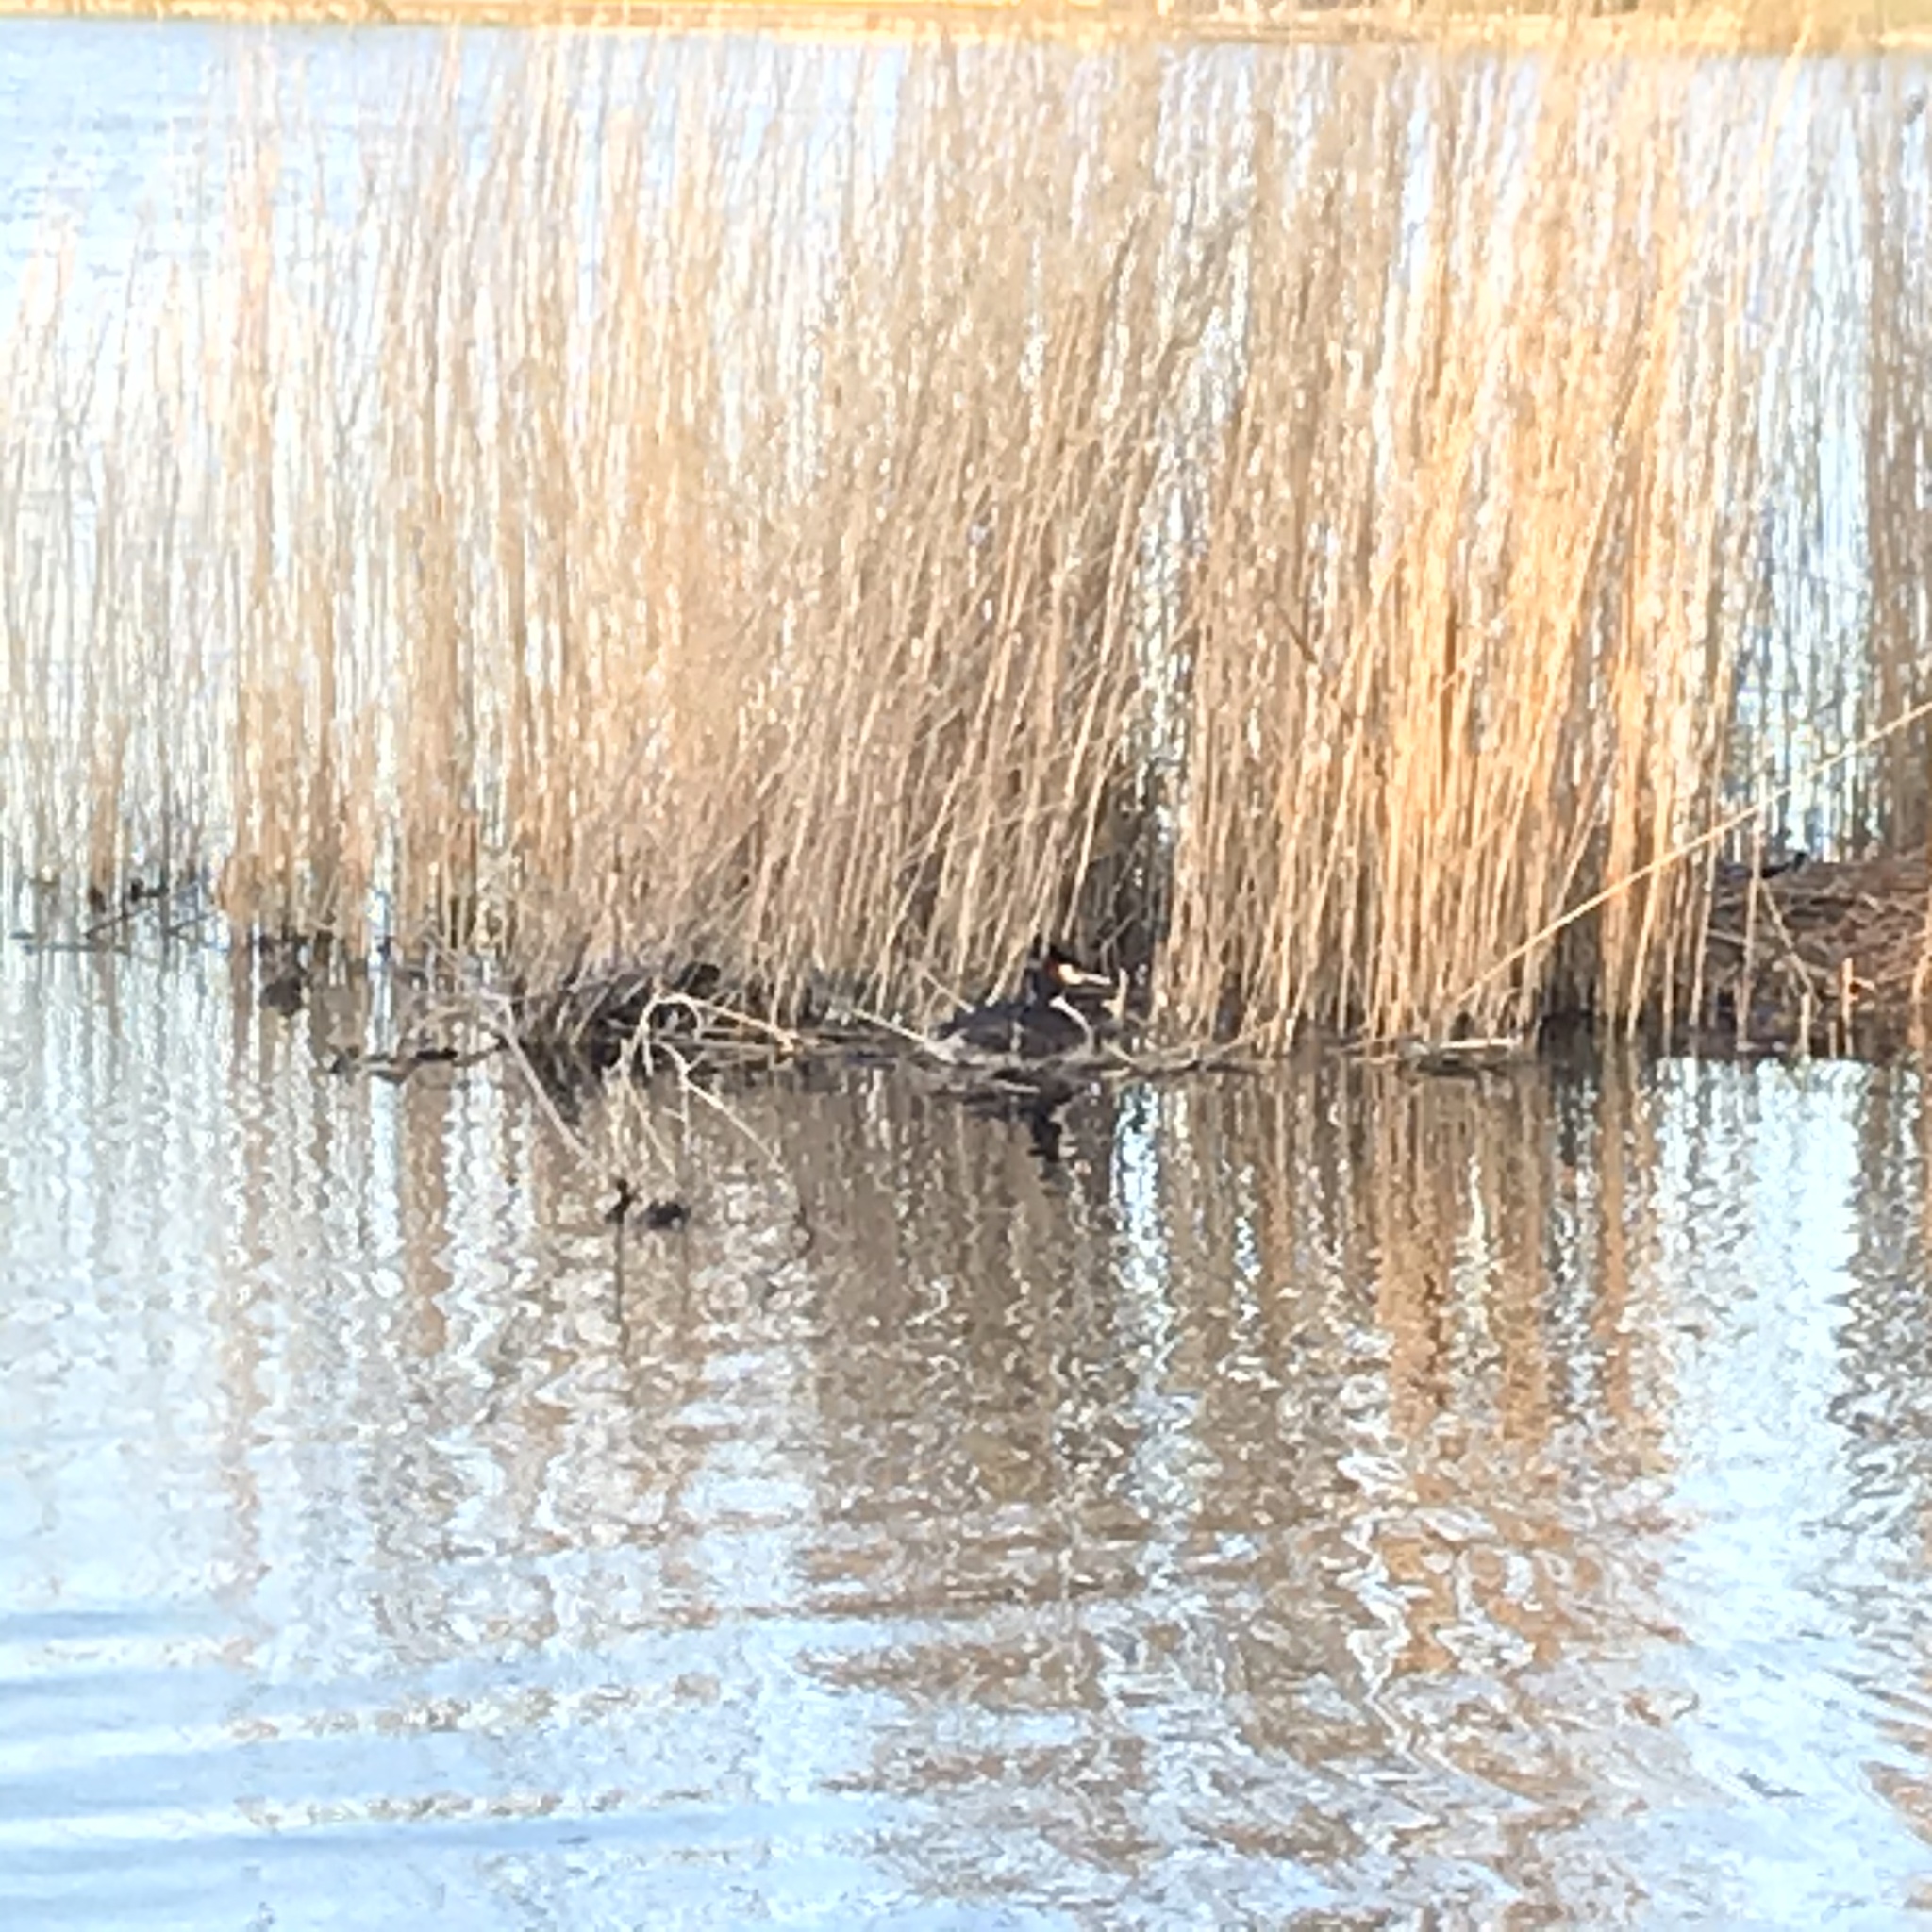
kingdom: Animalia
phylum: Chordata
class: Aves
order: Podicipediformes
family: Podicipedidae
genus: Podiceps
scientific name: Podiceps cristatus
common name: Great crested grebe
